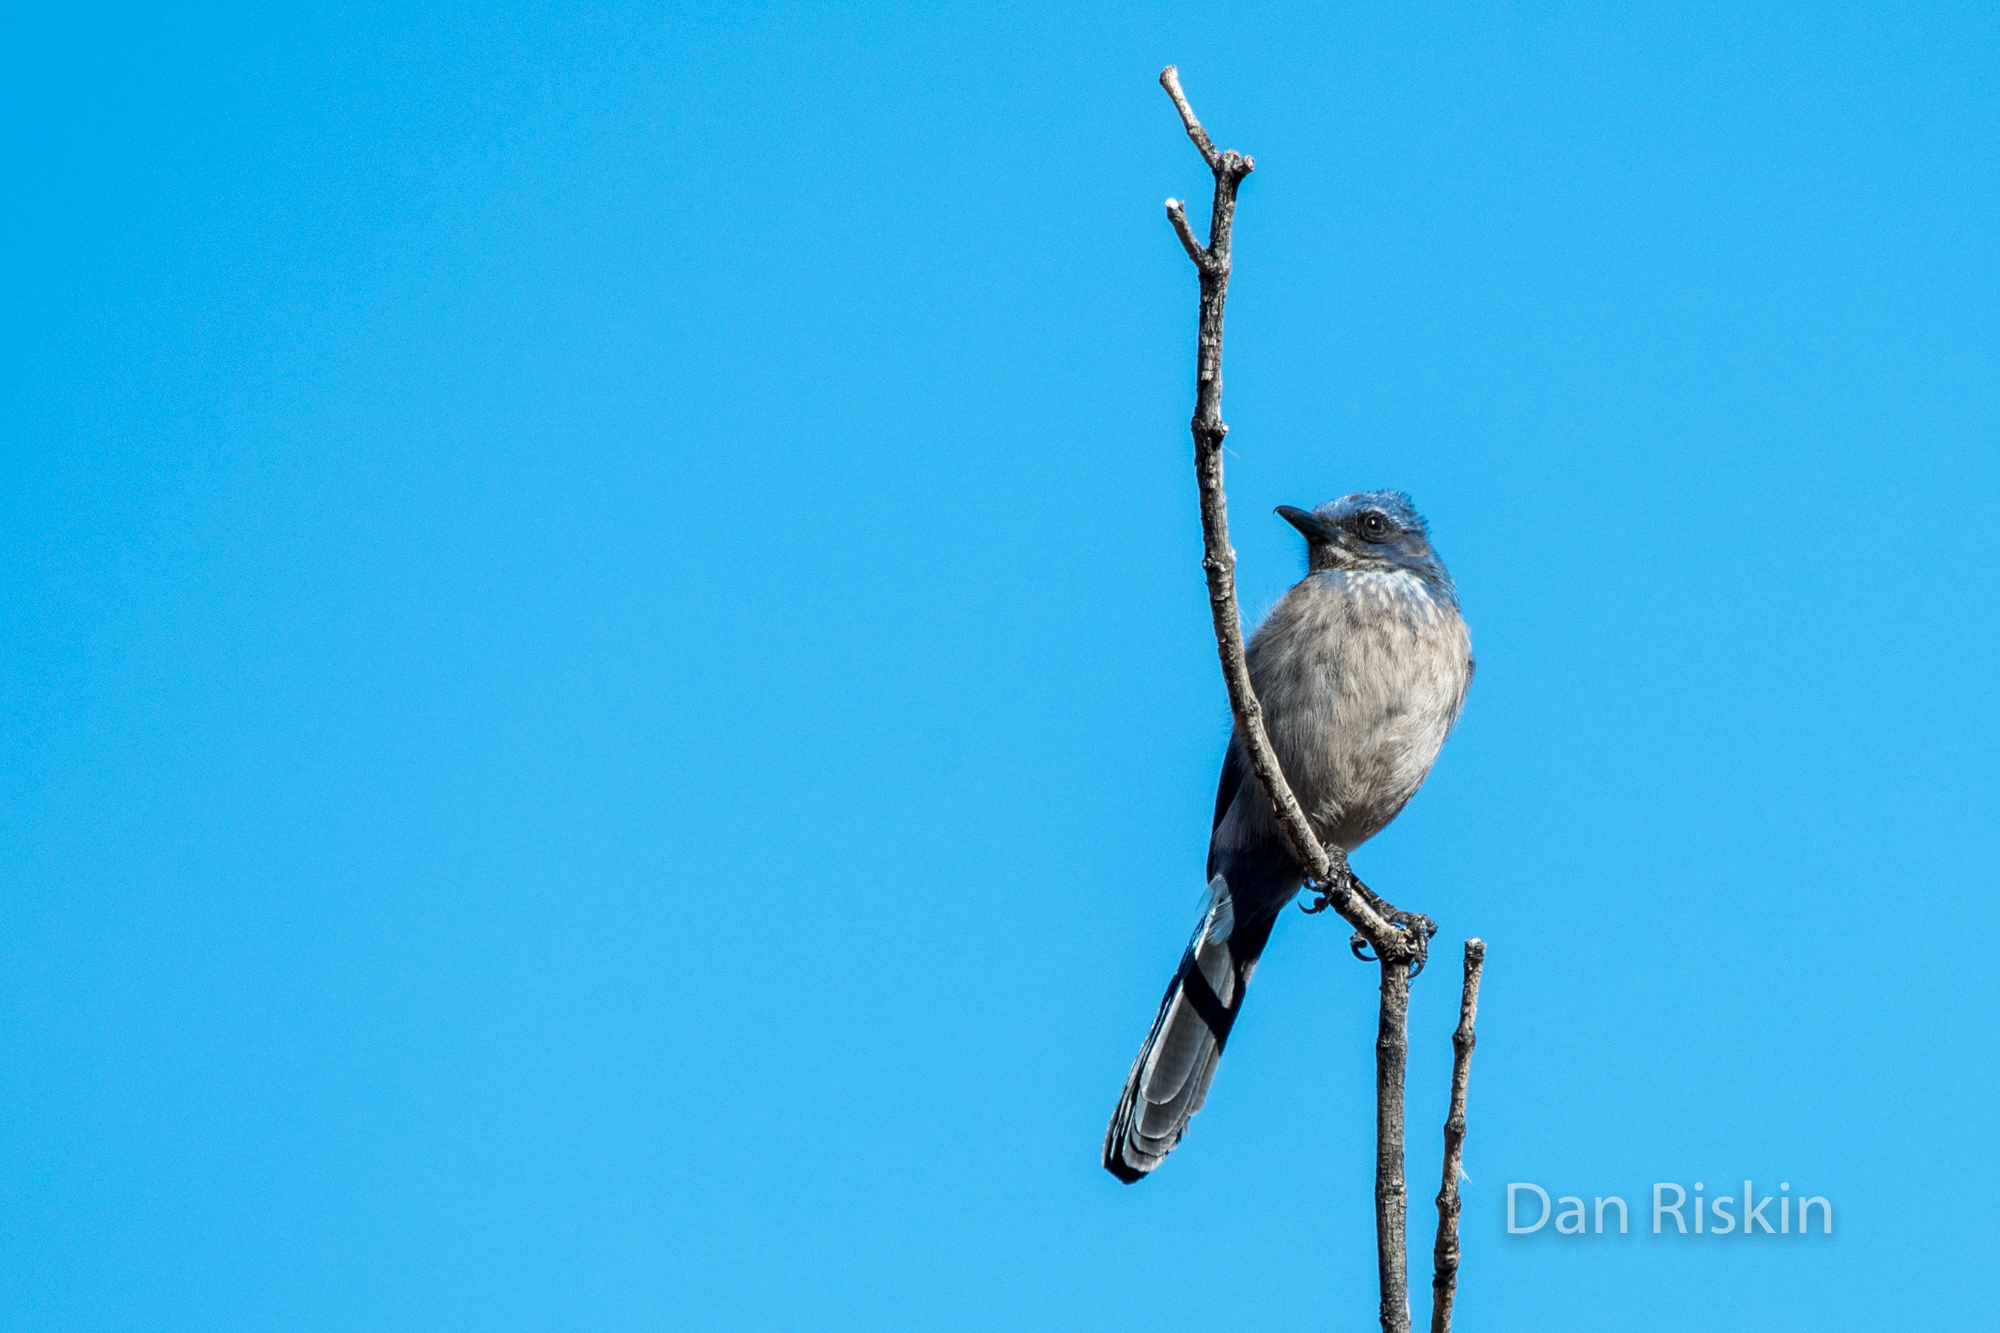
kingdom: Animalia
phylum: Chordata
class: Aves
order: Passeriformes
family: Corvidae
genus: Aphelocoma
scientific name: Aphelocoma woodhouseii
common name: Woodhouse's scrub-jay
